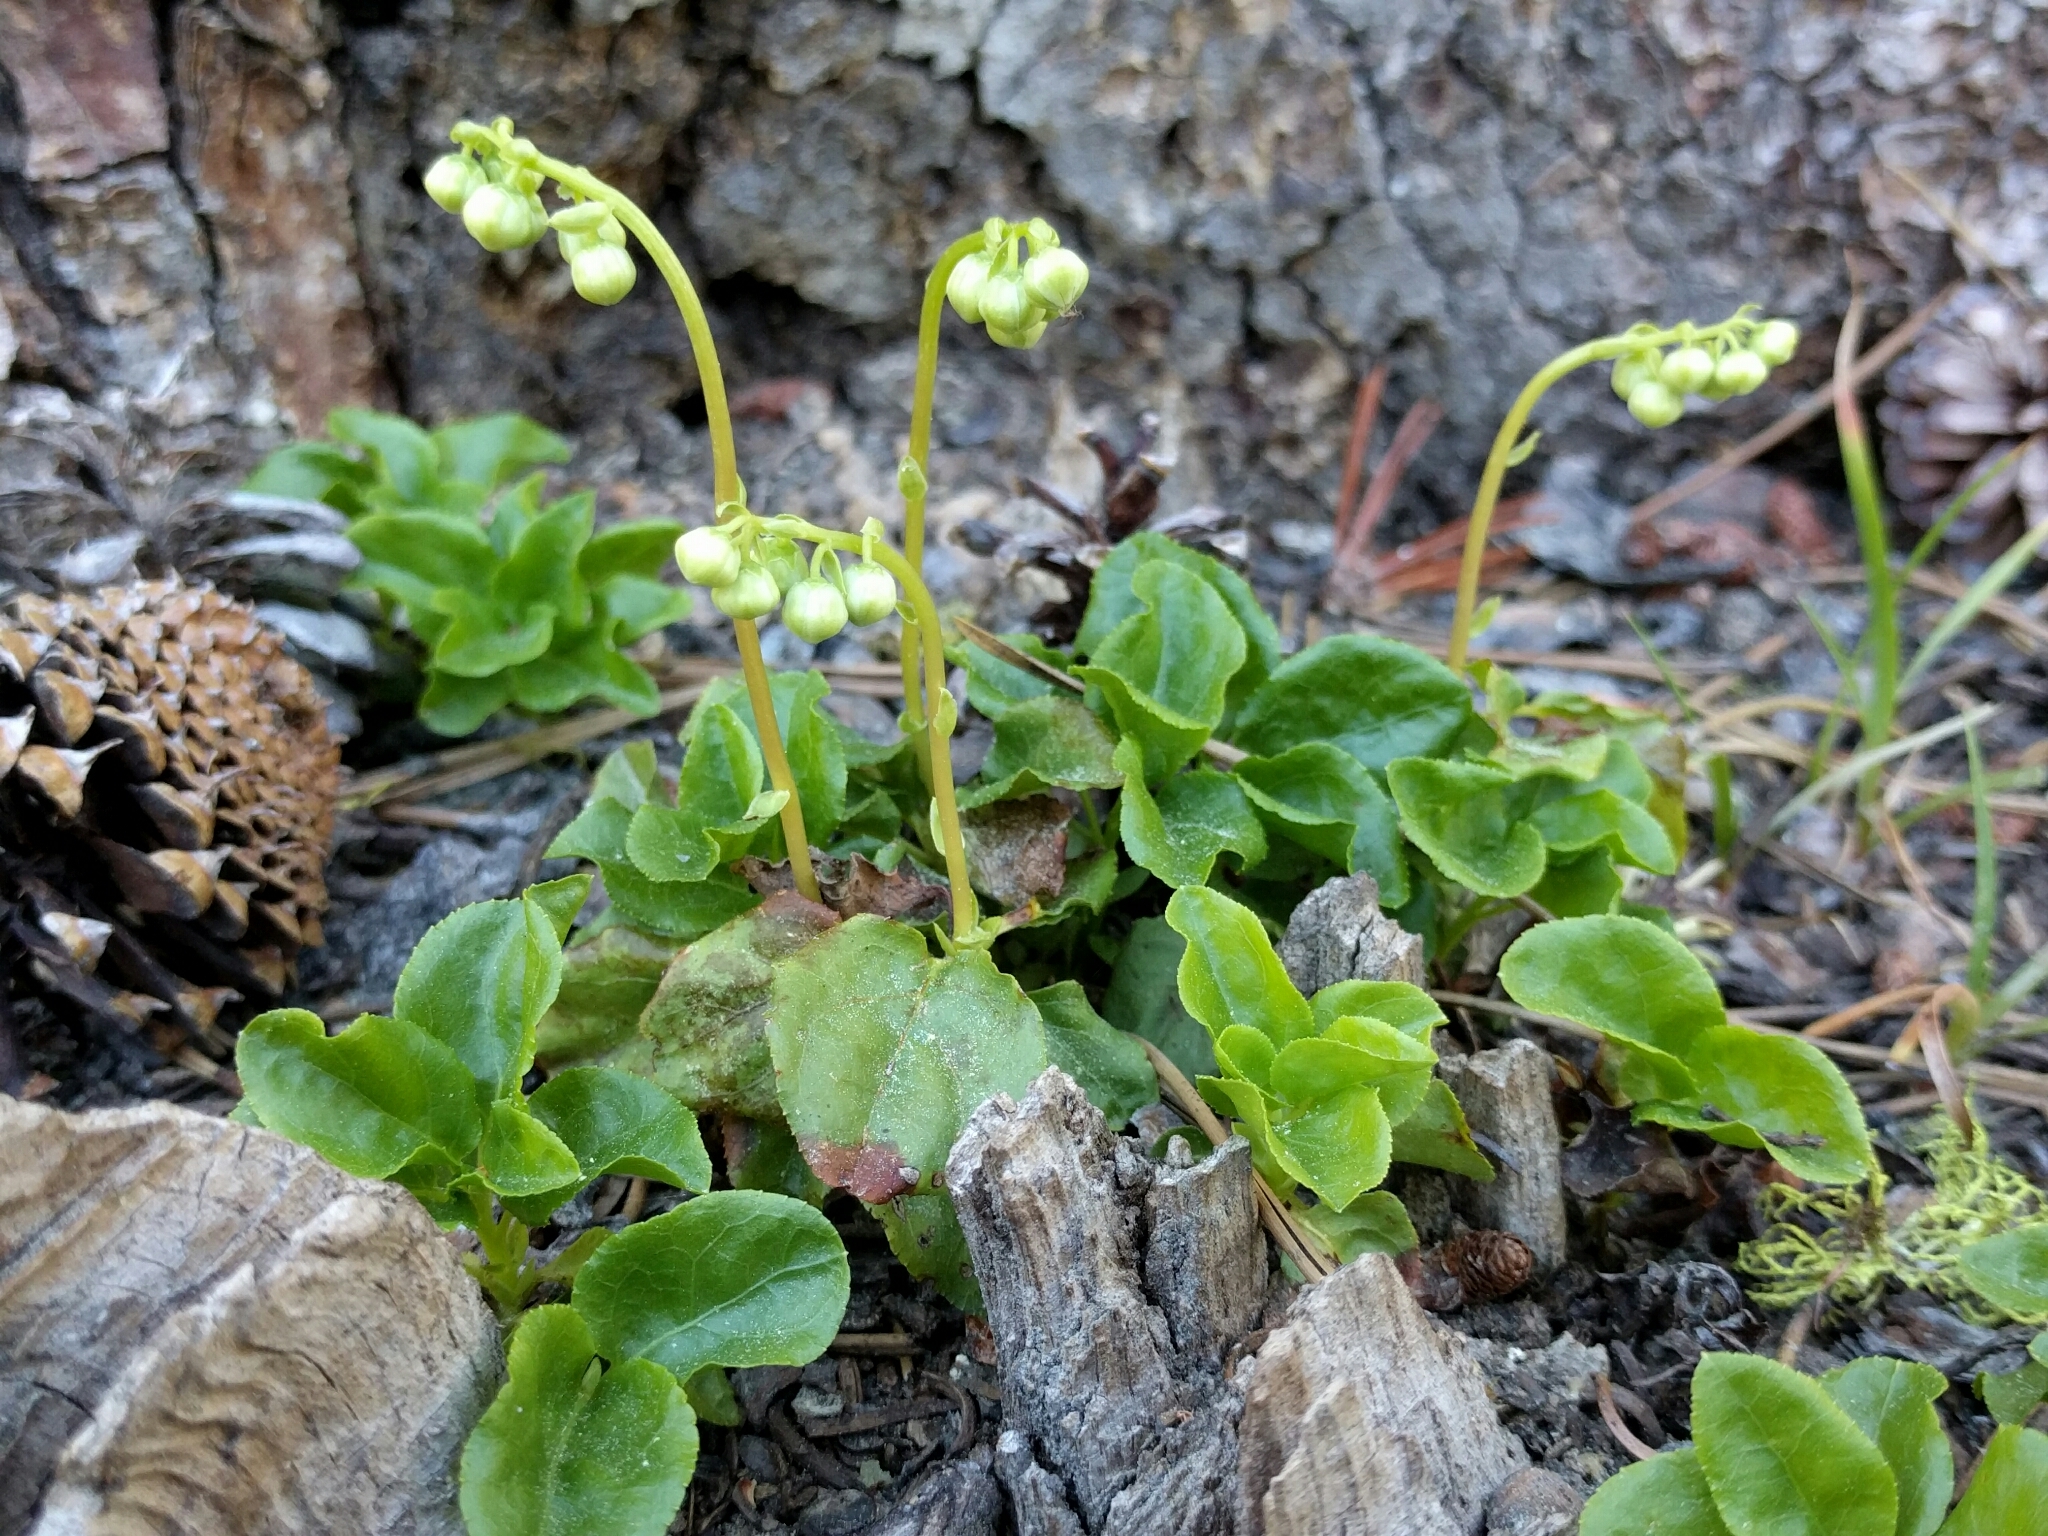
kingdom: Plantae
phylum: Tracheophyta
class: Magnoliopsida
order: Ericales
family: Ericaceae
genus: Orthilia
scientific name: Orthilia secunda
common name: One-sided orthilia
